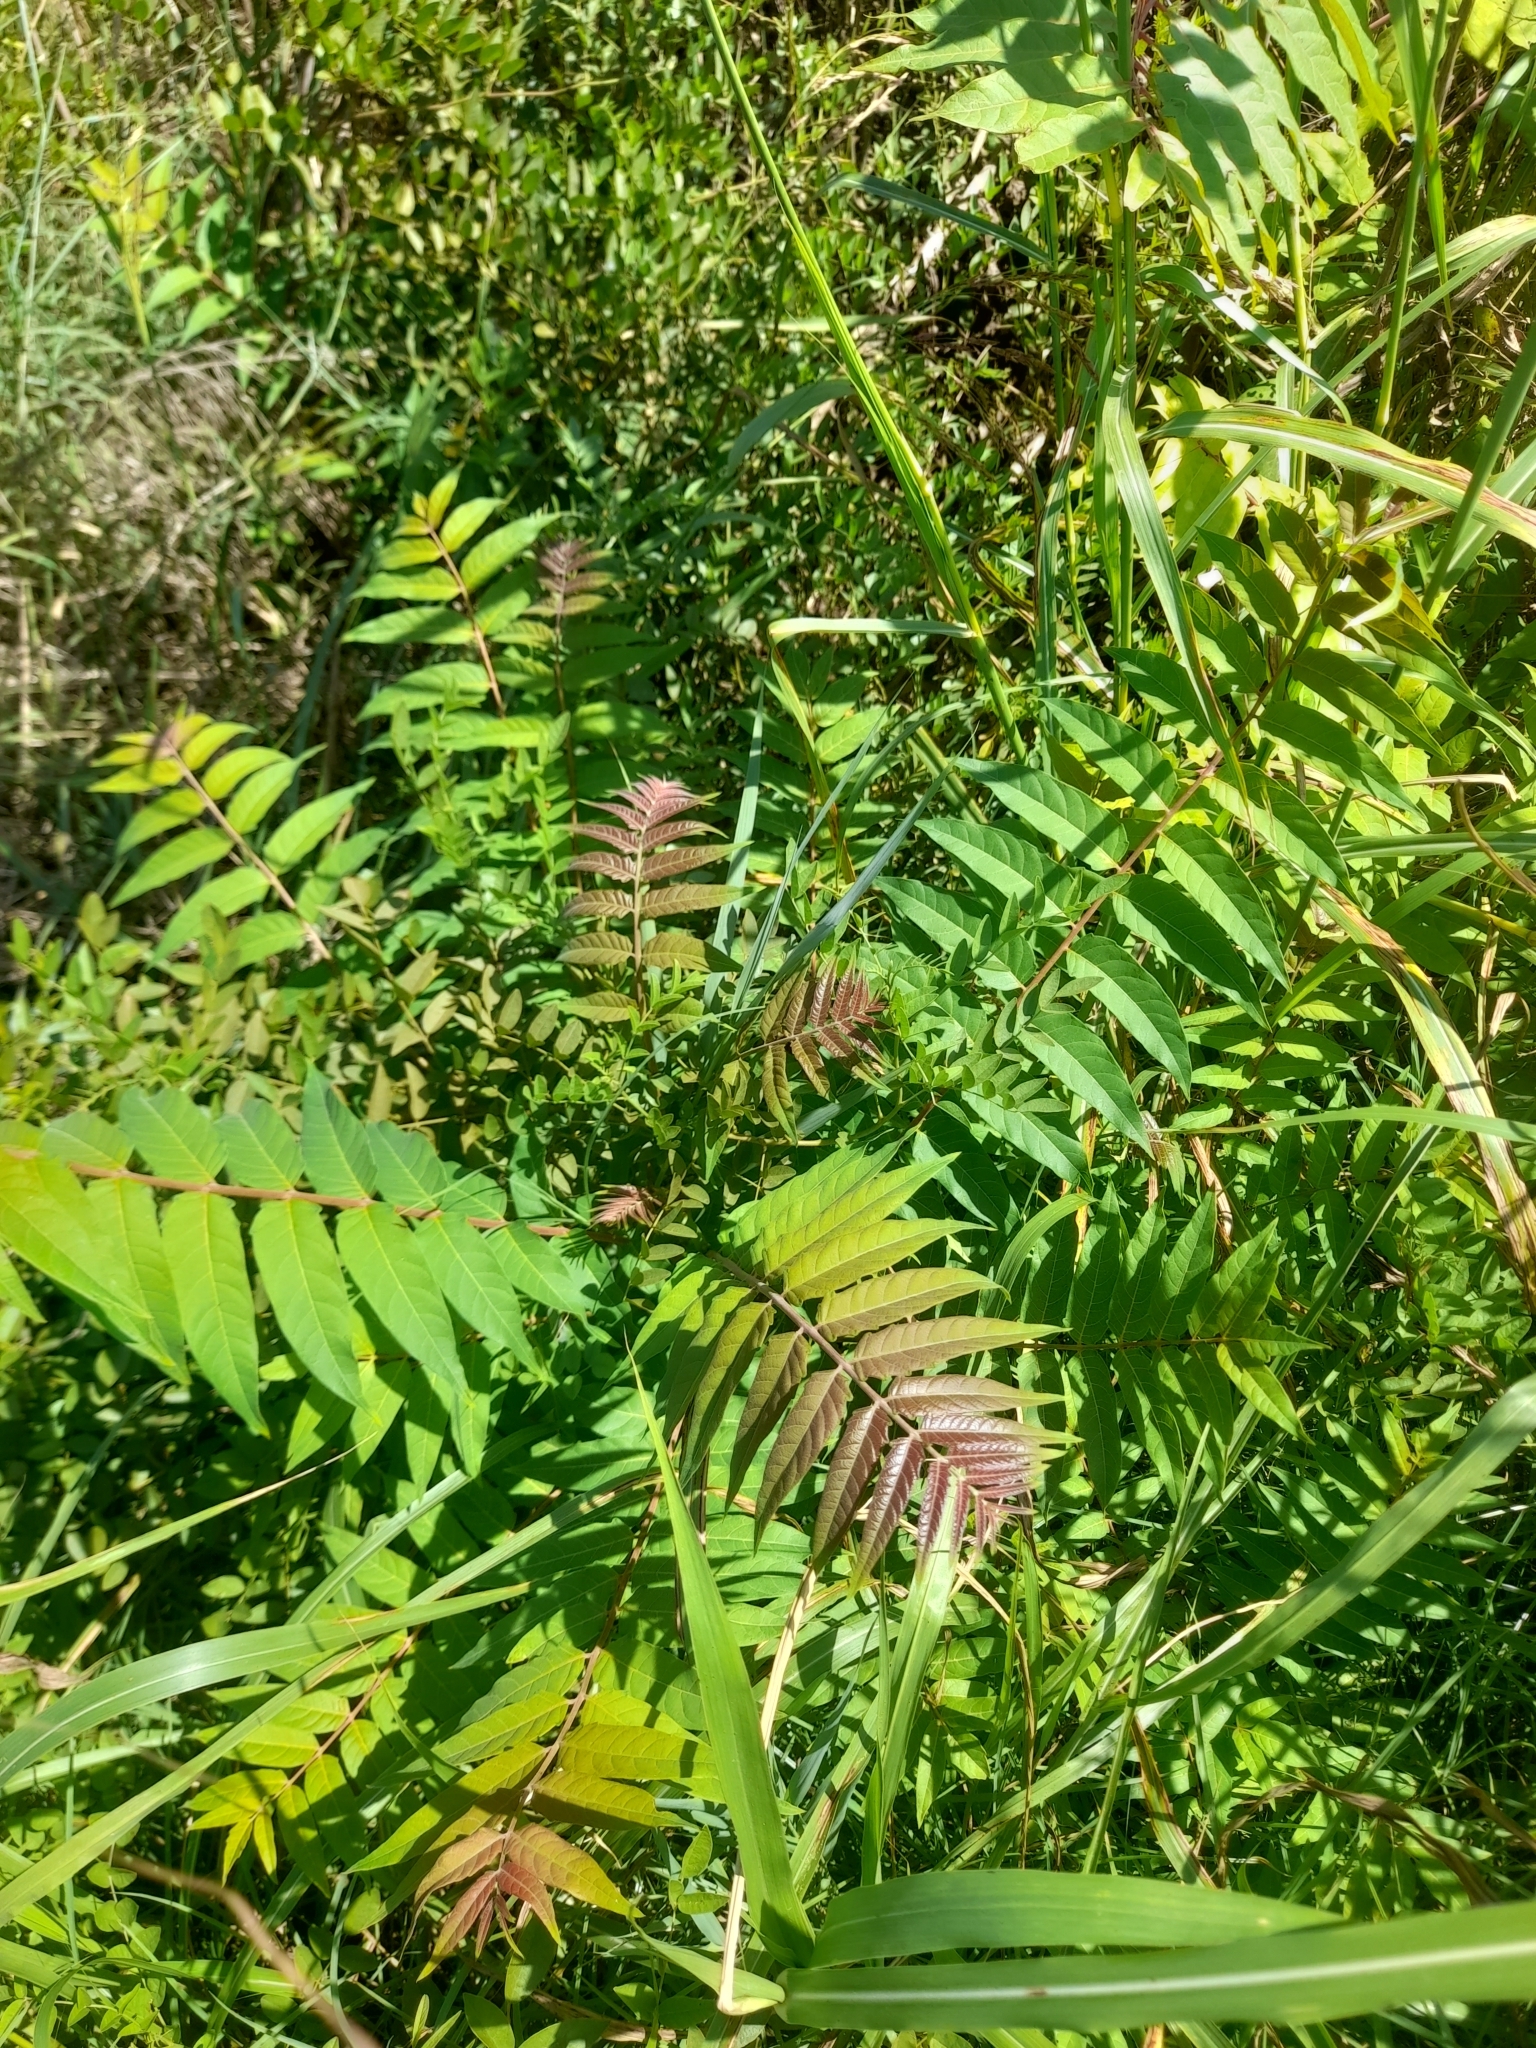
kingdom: Plantae
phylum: Tracheophyta
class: Magnoliopsida
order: Sapindales
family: Simaroubaceae
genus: Ailanthus
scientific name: Ailanthus altissima
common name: Tree-of-heaven
